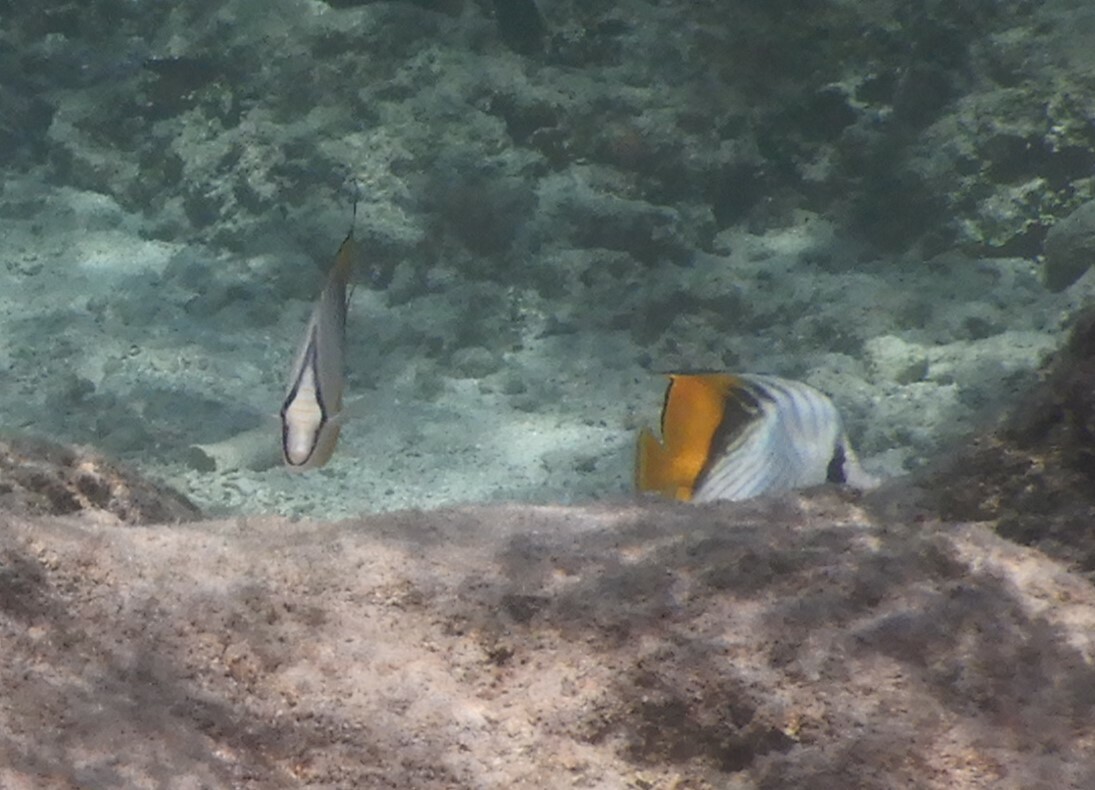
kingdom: Animalia
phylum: Chordata
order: Perciformes
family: Chaetodontidae
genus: Chaetodon
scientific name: Chaetodon auriga
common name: Threadfin butterflyfish
